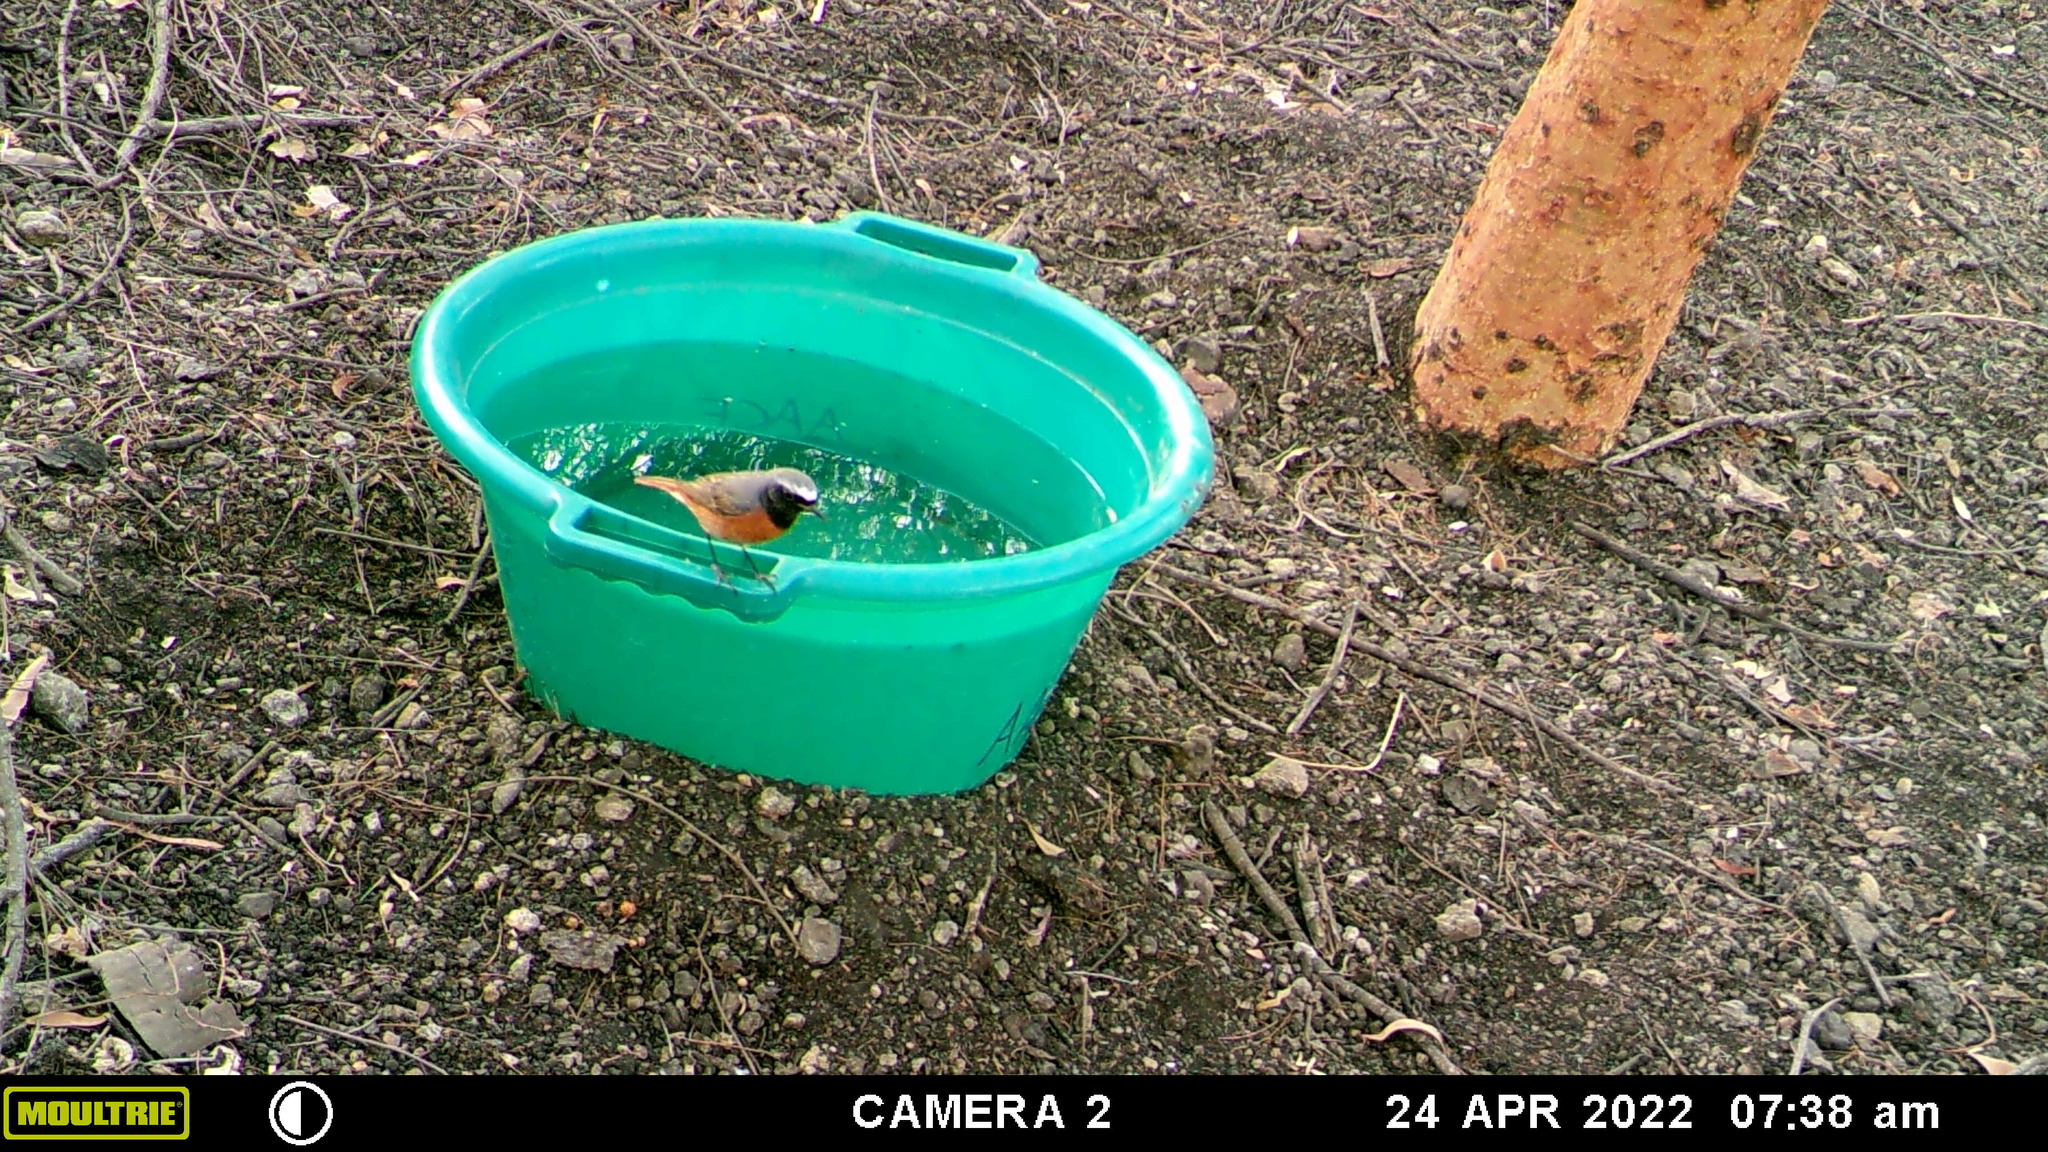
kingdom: Animalia
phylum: Chordata
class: Aves
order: Passeriformes
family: Muscicapidae
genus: Phoenicurus
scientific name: Phoenicurus phoenicurus
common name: Common redstart
